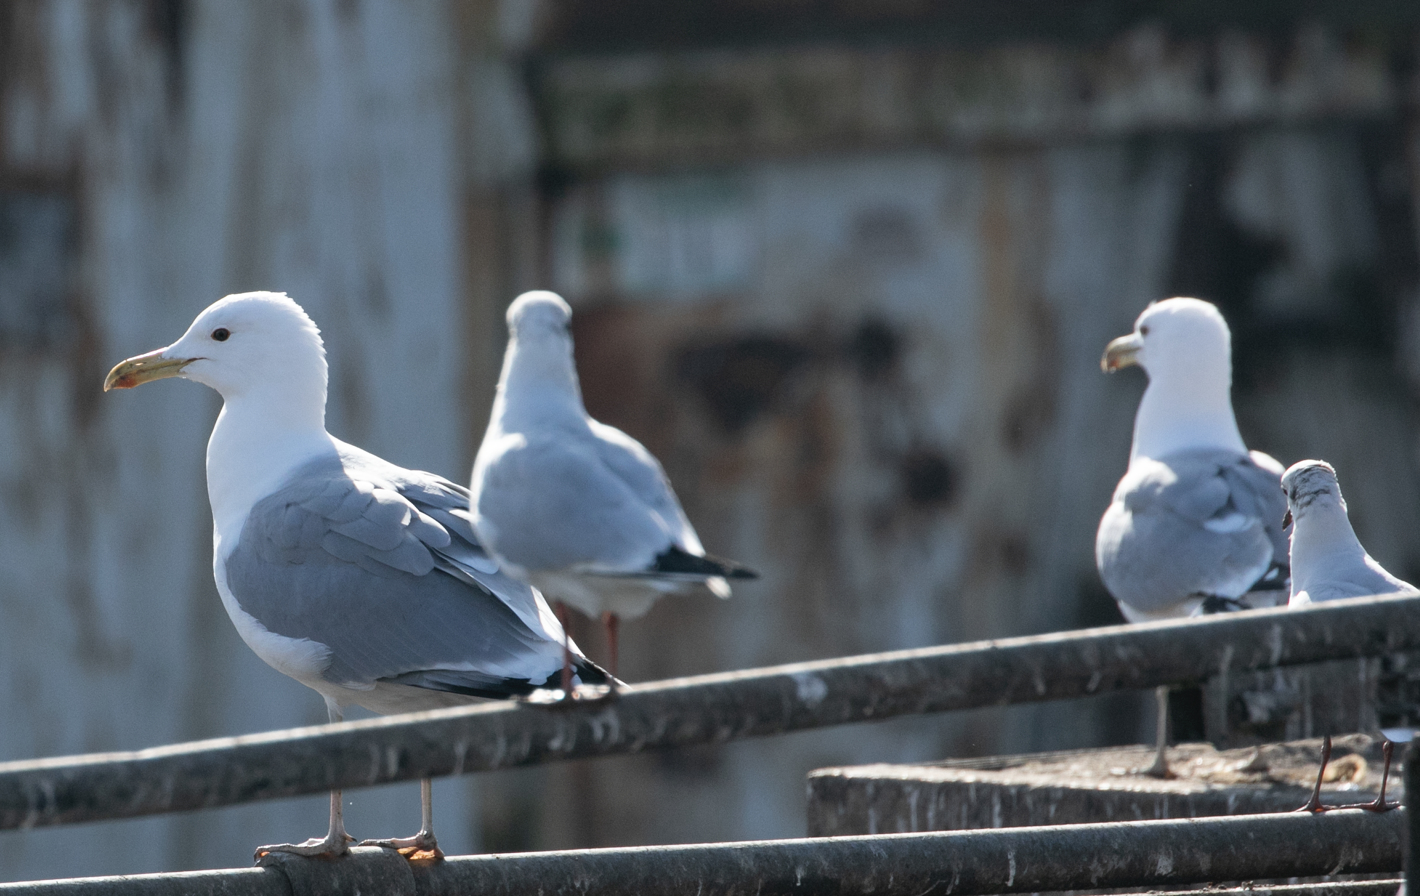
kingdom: Animalia
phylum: Chordata
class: Aves
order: Charadriiformes
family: Laridae
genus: Larus
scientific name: Larus cachinnans
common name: Caspian gull
